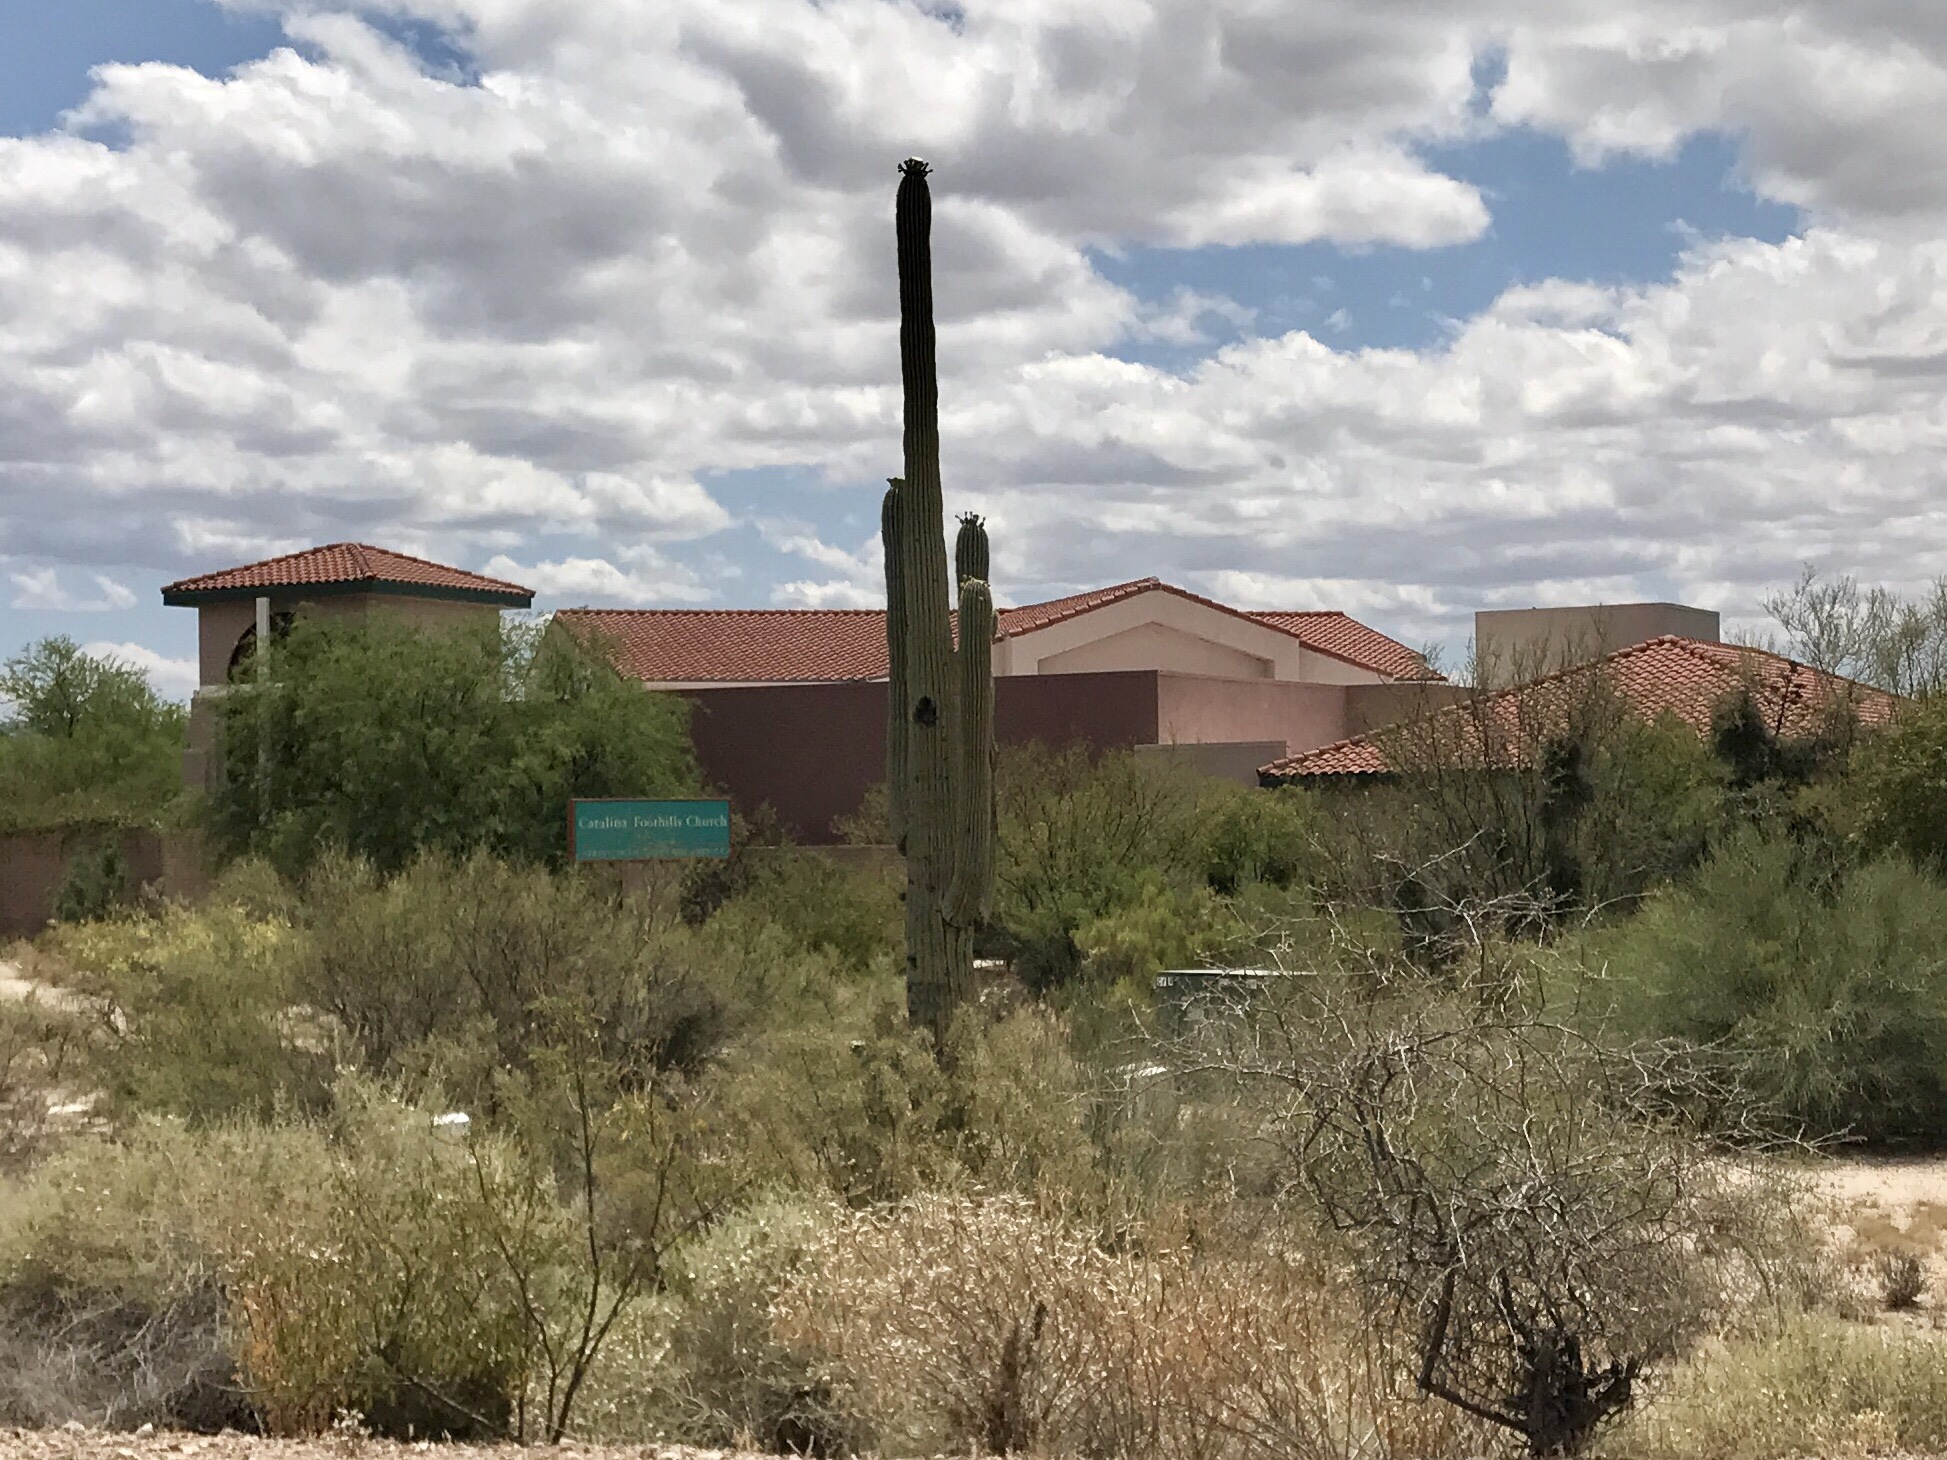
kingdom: Plantae
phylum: Tracheophyta
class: Magnoliopsida
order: Caryophyllales
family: Cactaceae
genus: Carnegiea
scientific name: Carnegiea gigantea
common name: Saguaro
